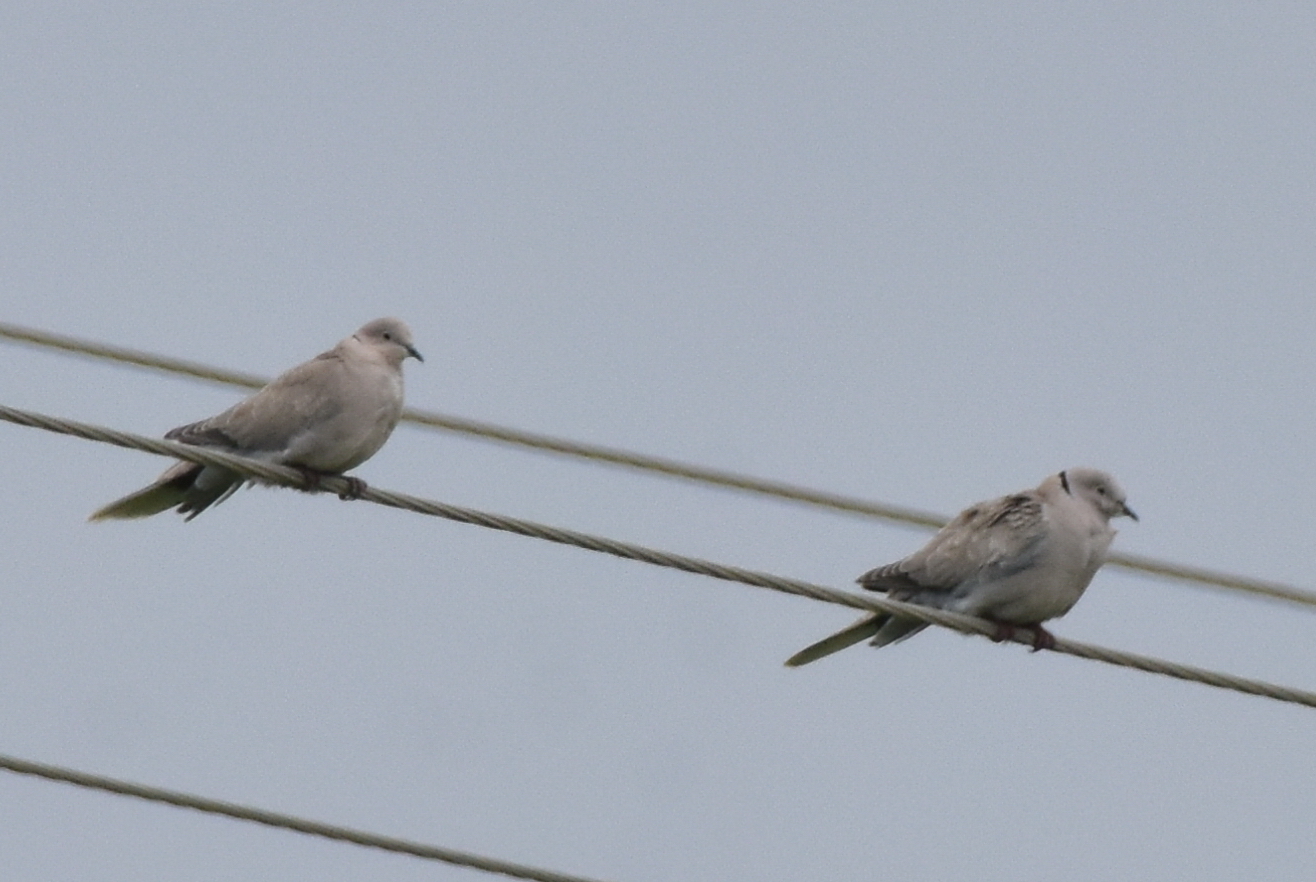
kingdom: Animalia
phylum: Chordata
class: Aves
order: Columbiformes
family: Columbidae
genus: Streptopelia
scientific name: Streptopelia decaocto
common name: Eurasian collared dove
